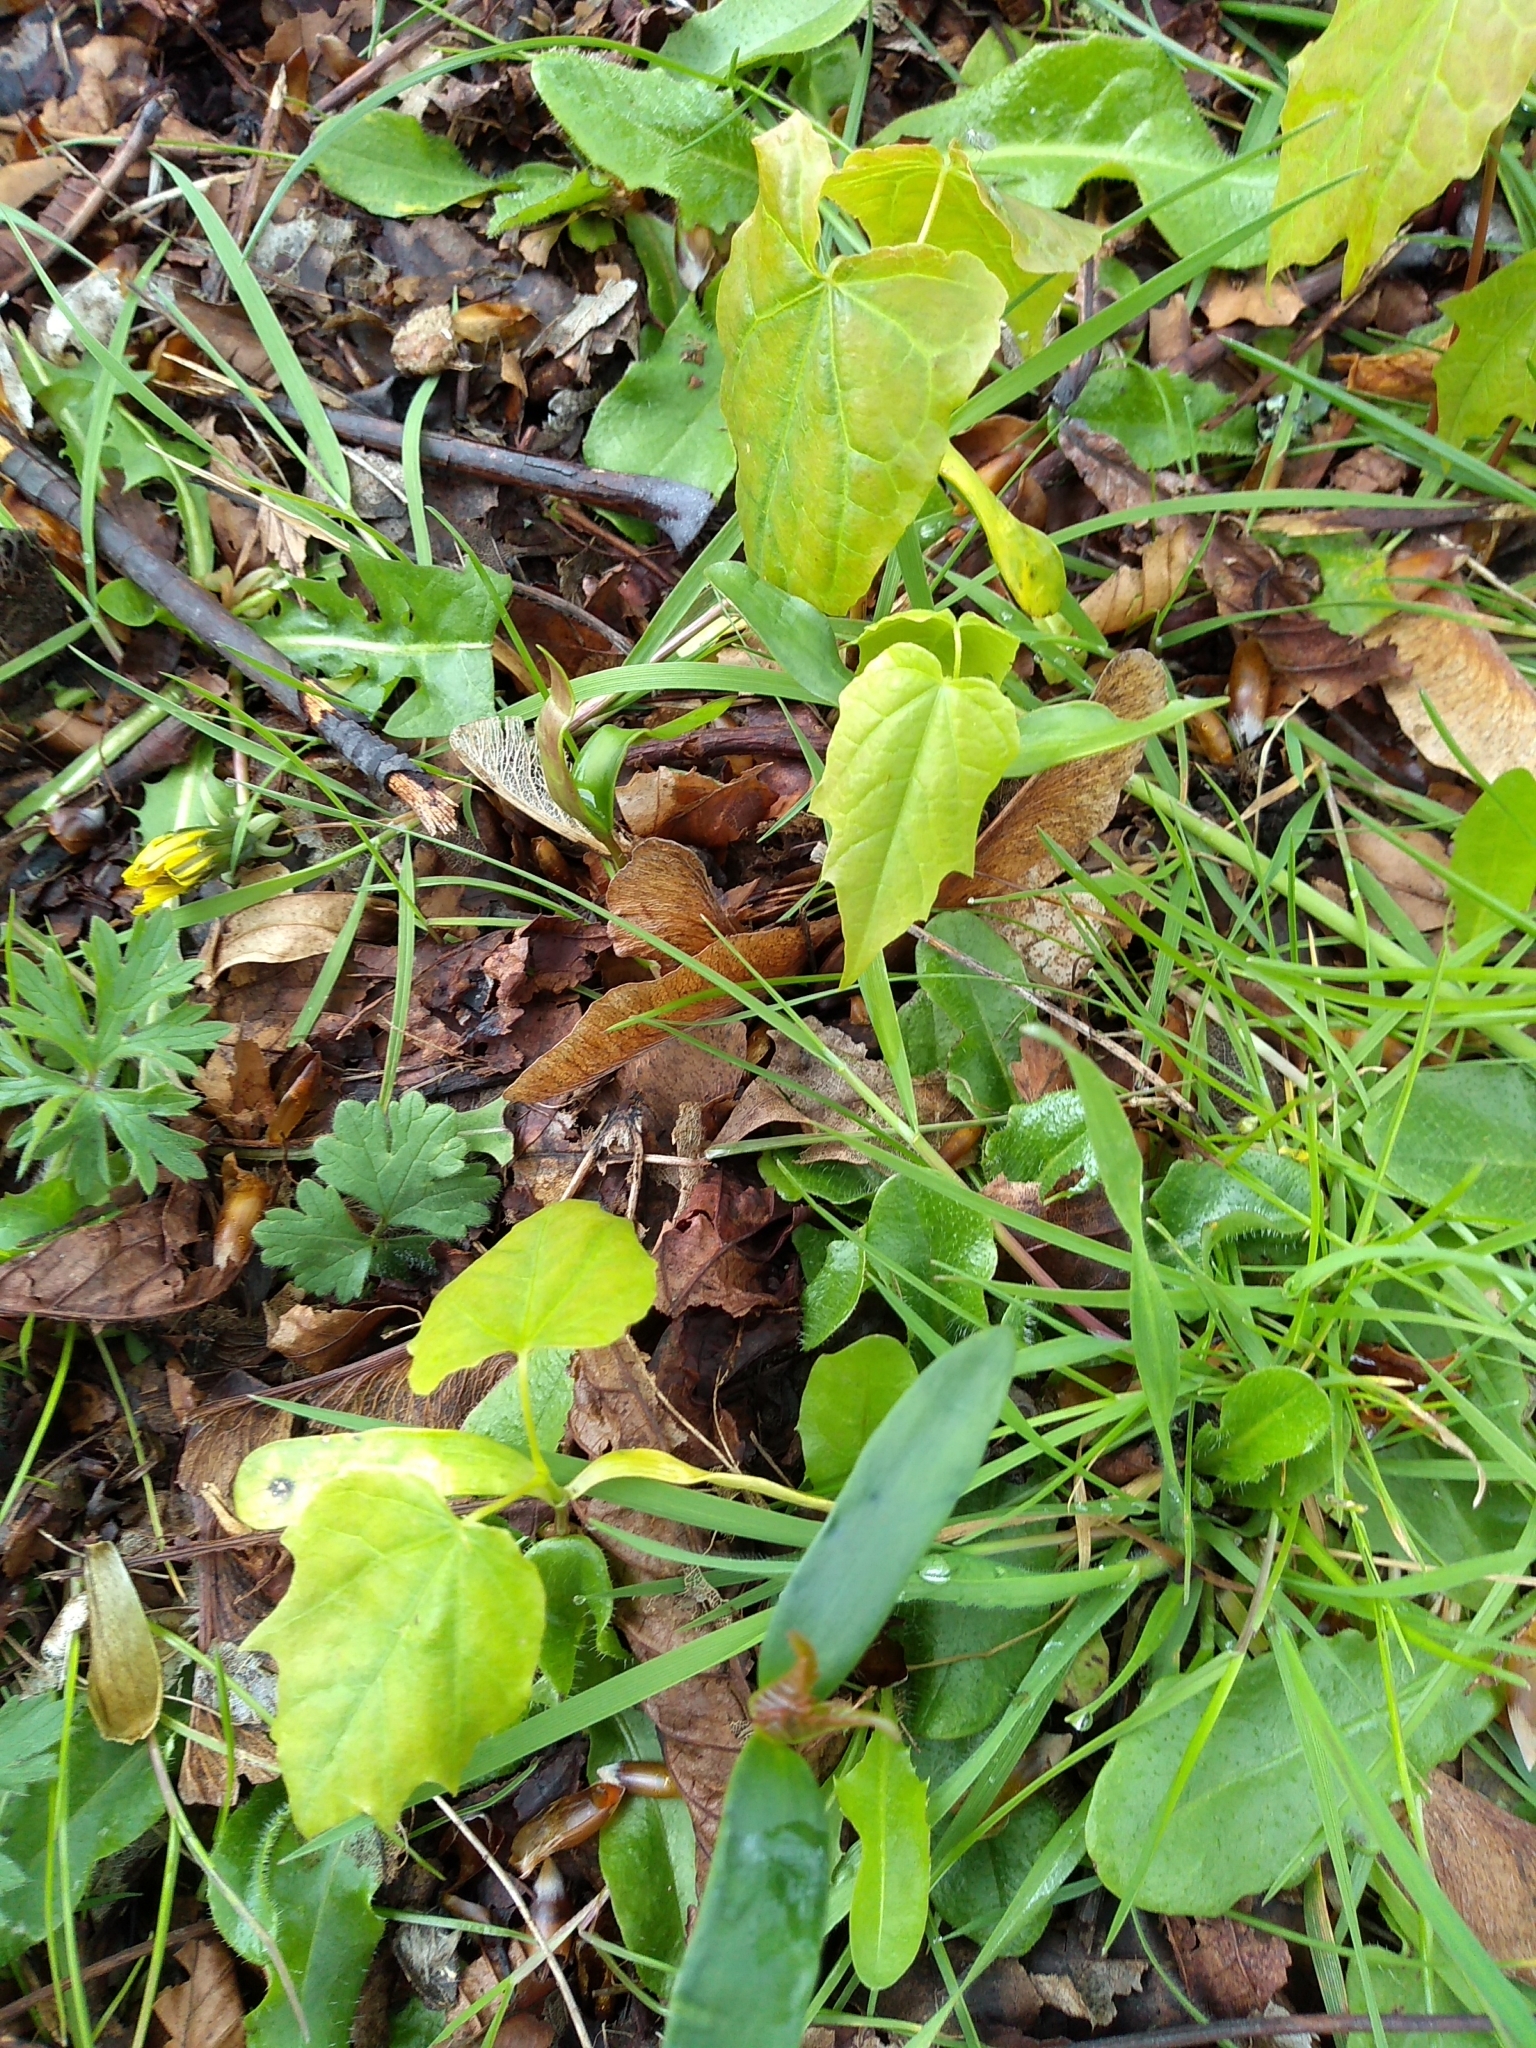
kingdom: Plantae
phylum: Tracheophyta
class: Magnoliopsida
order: Sapindales
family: Sapindaceae
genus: Acer
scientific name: Acer platanoides
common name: Norway maple
